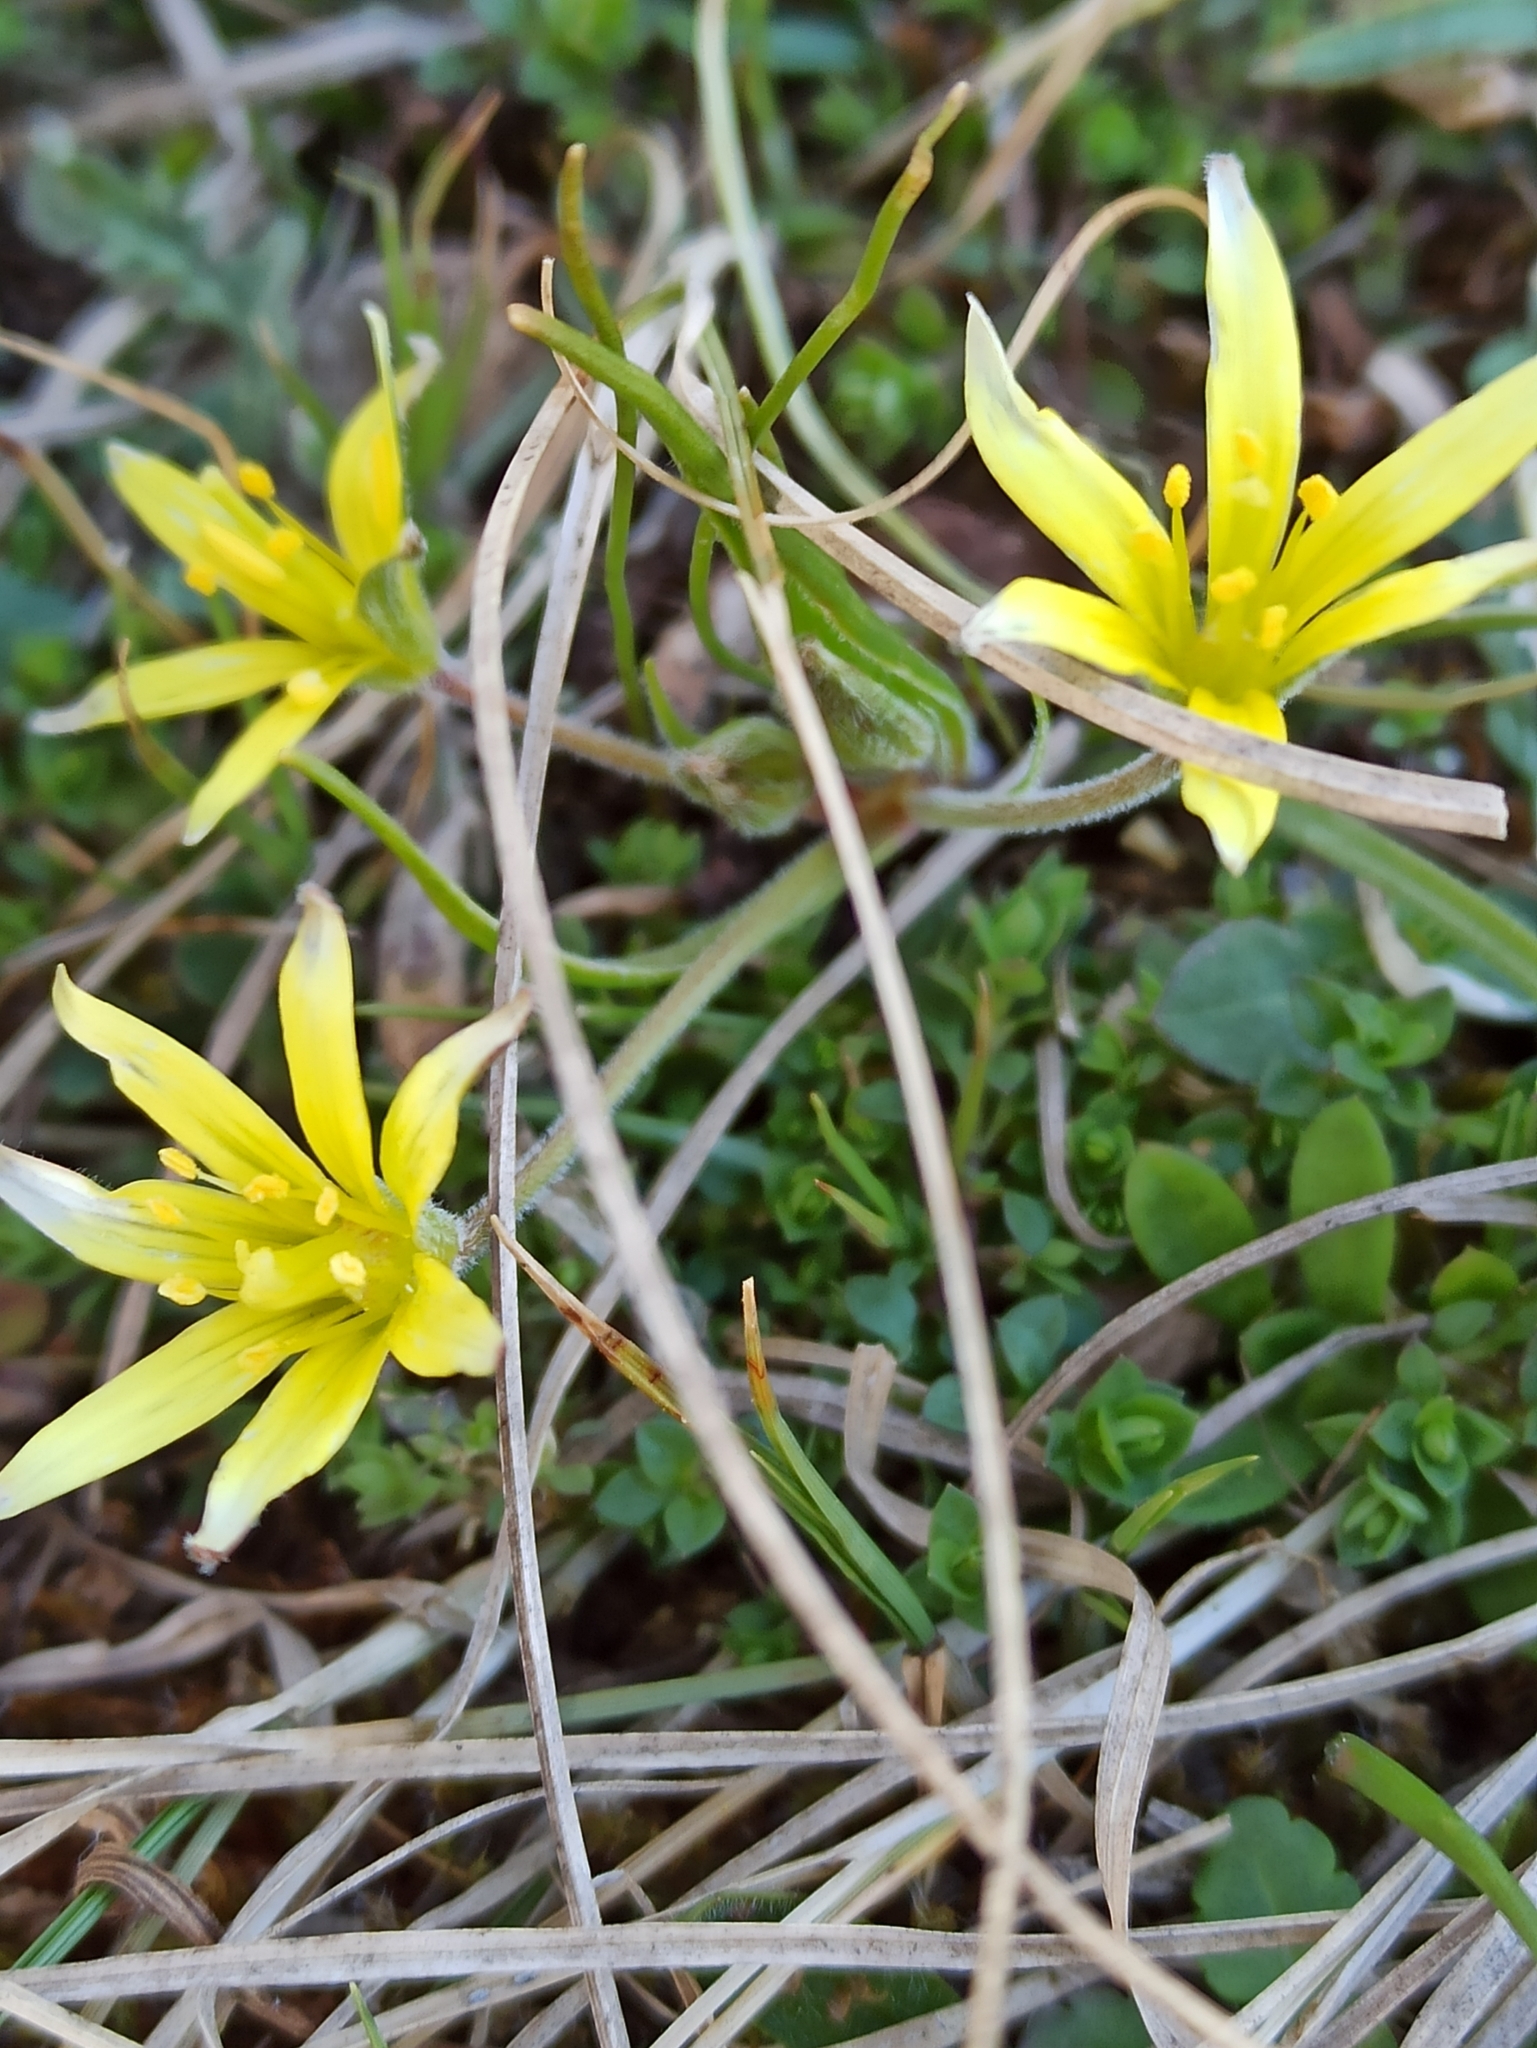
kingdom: Plantae
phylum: Tracheophyta
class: Liliopsida
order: Liliales
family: Liliaceae
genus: Gagea
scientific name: Gagea villosa
